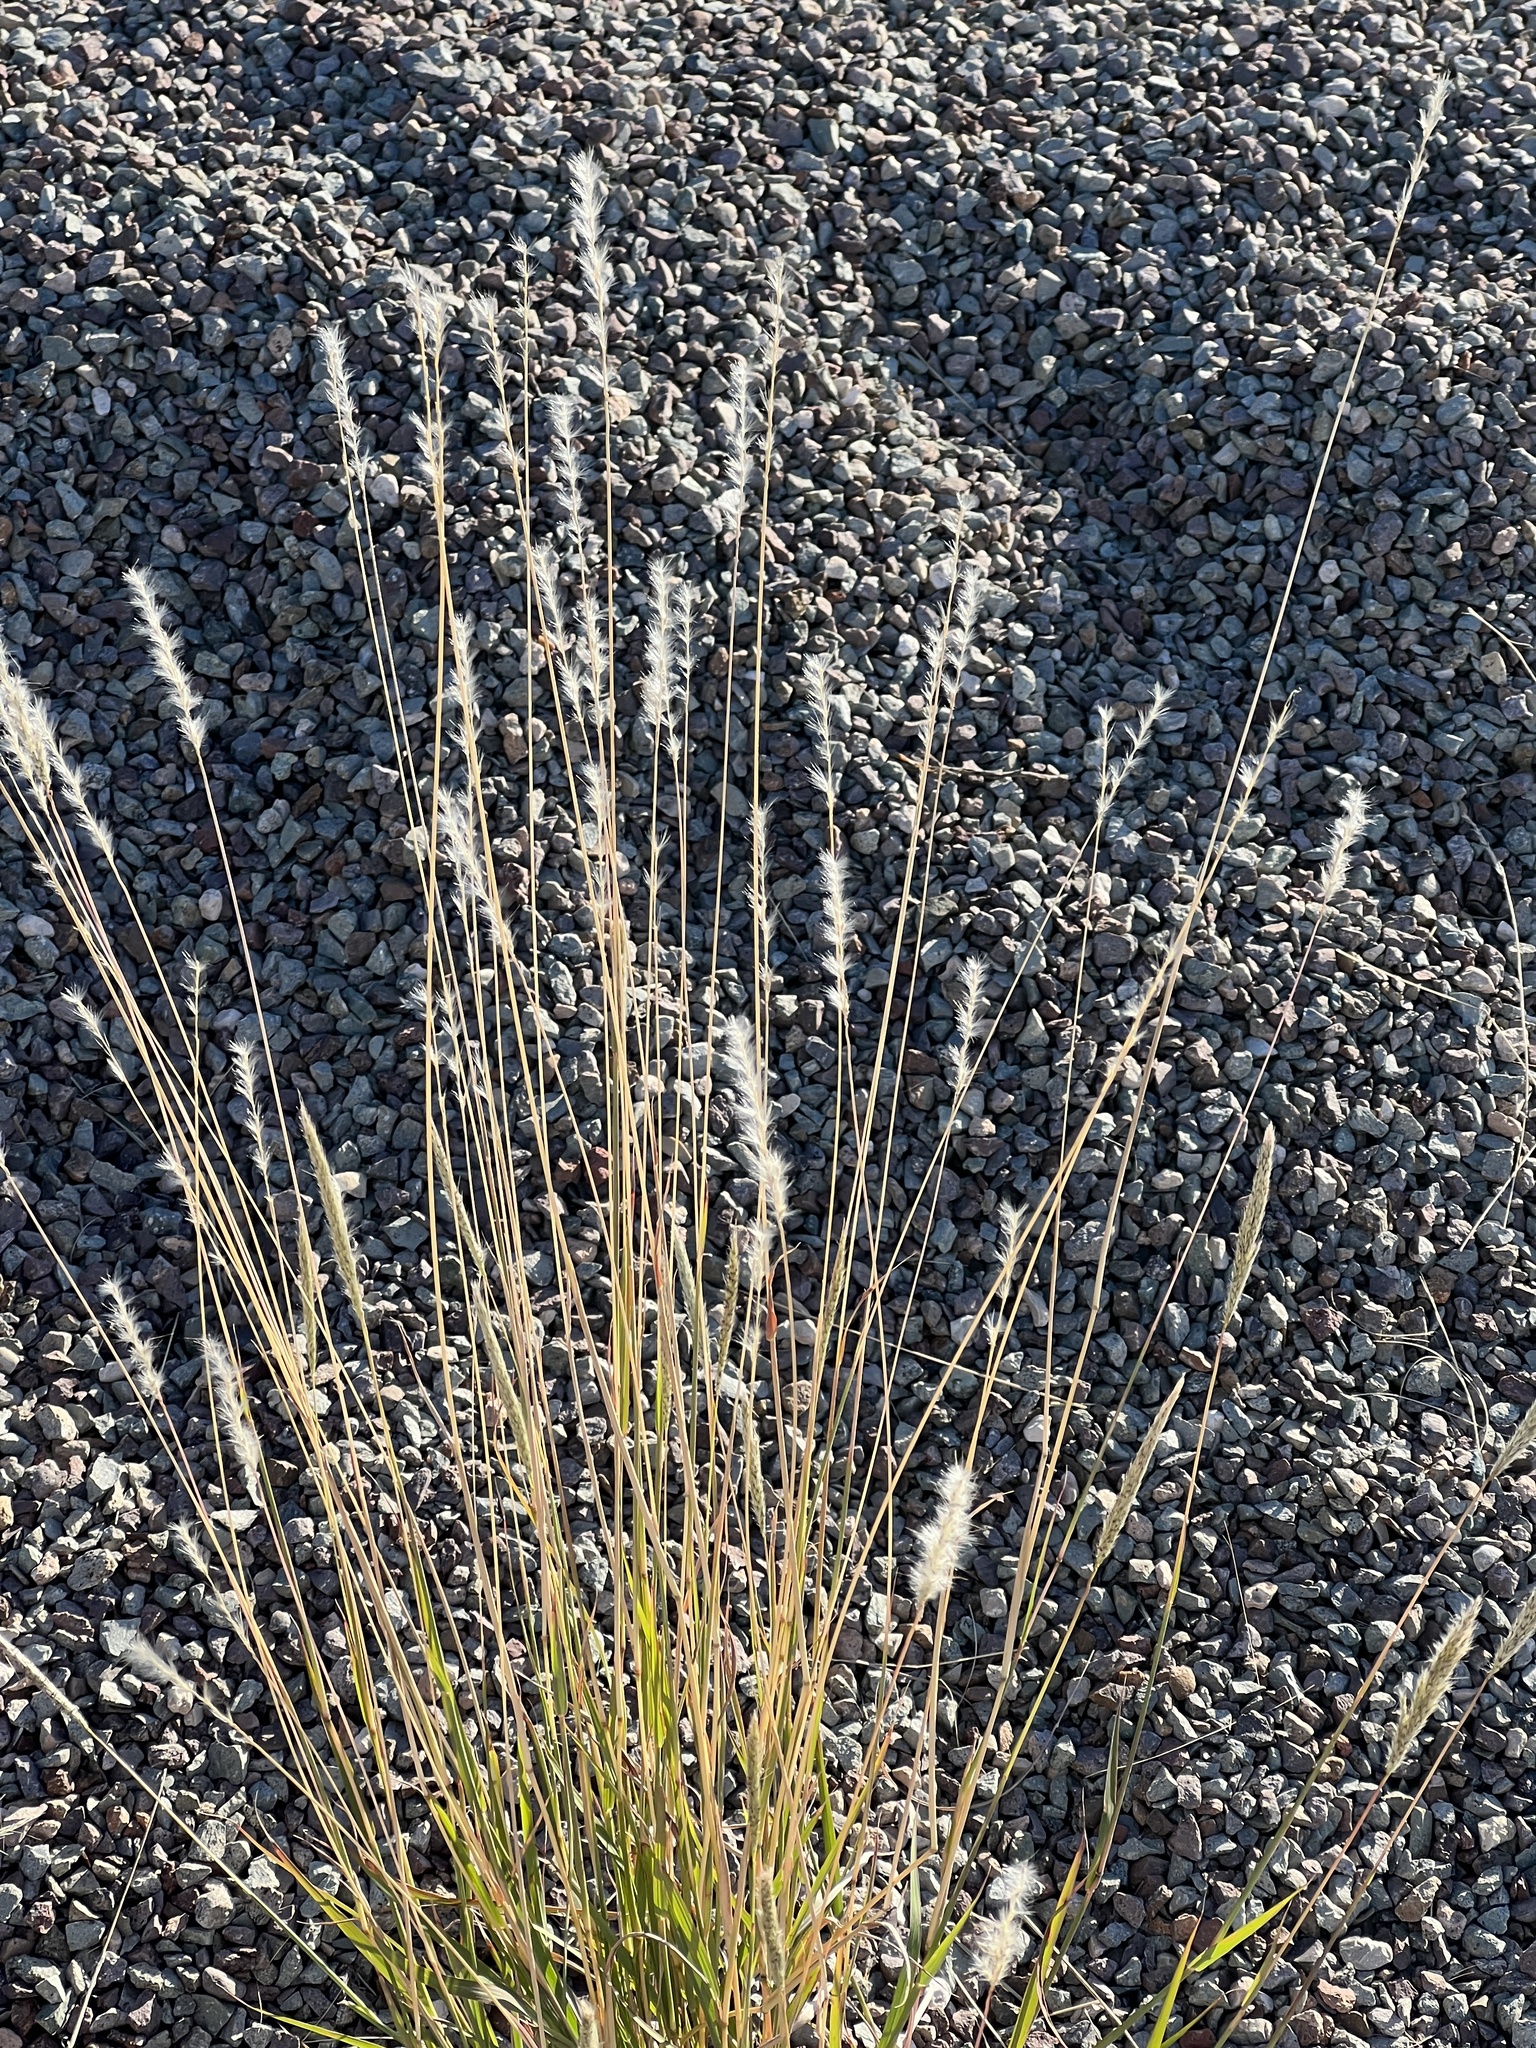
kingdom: Plantae
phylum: Tracheophyta
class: Liliopsida
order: Poales
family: Poaceae
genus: Bothriochloa
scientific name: Bothriochloa barbinodis
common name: Cane bluestem
